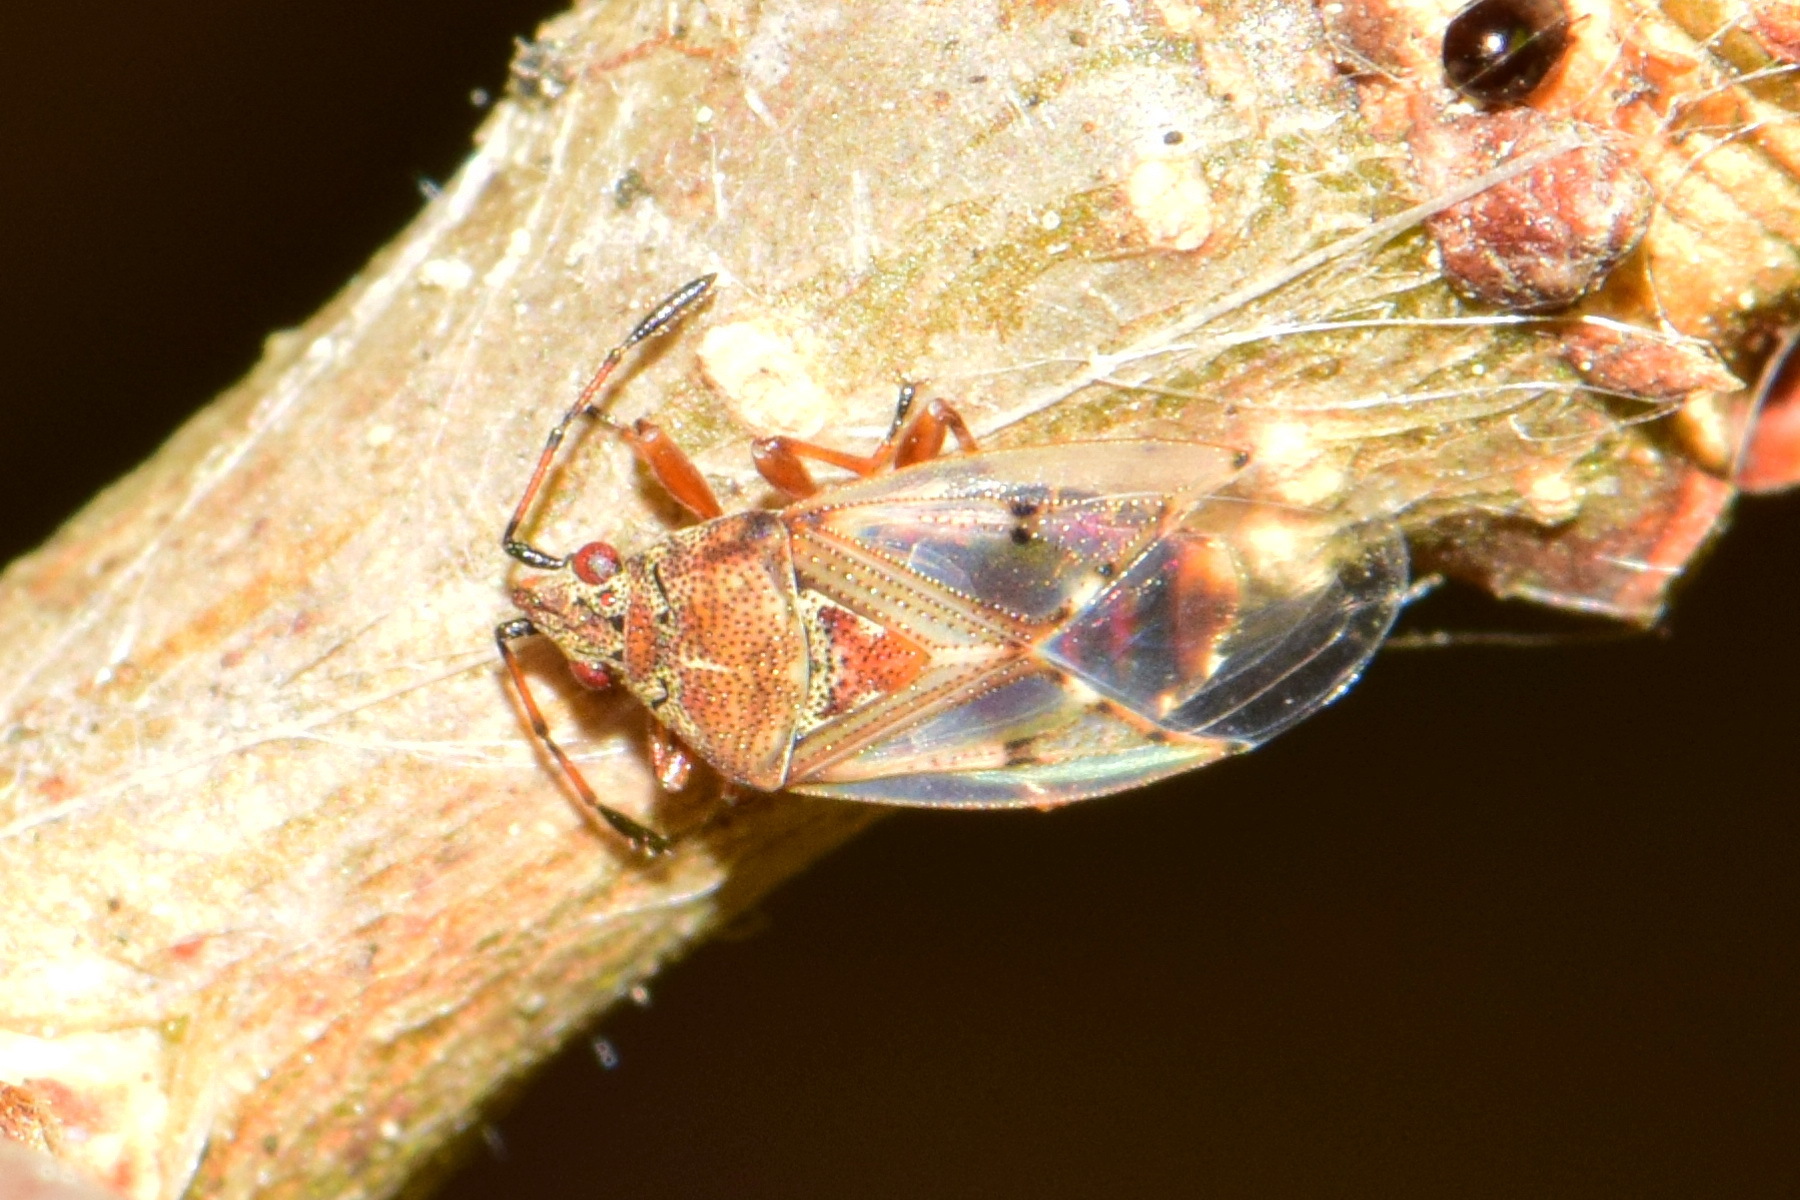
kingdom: Animalia
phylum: Arthropoda
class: Insecta
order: Hemiptera
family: Lygaeidae
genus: Kleidocerys
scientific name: Kleidocerys resedae
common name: Birch catkin bug
